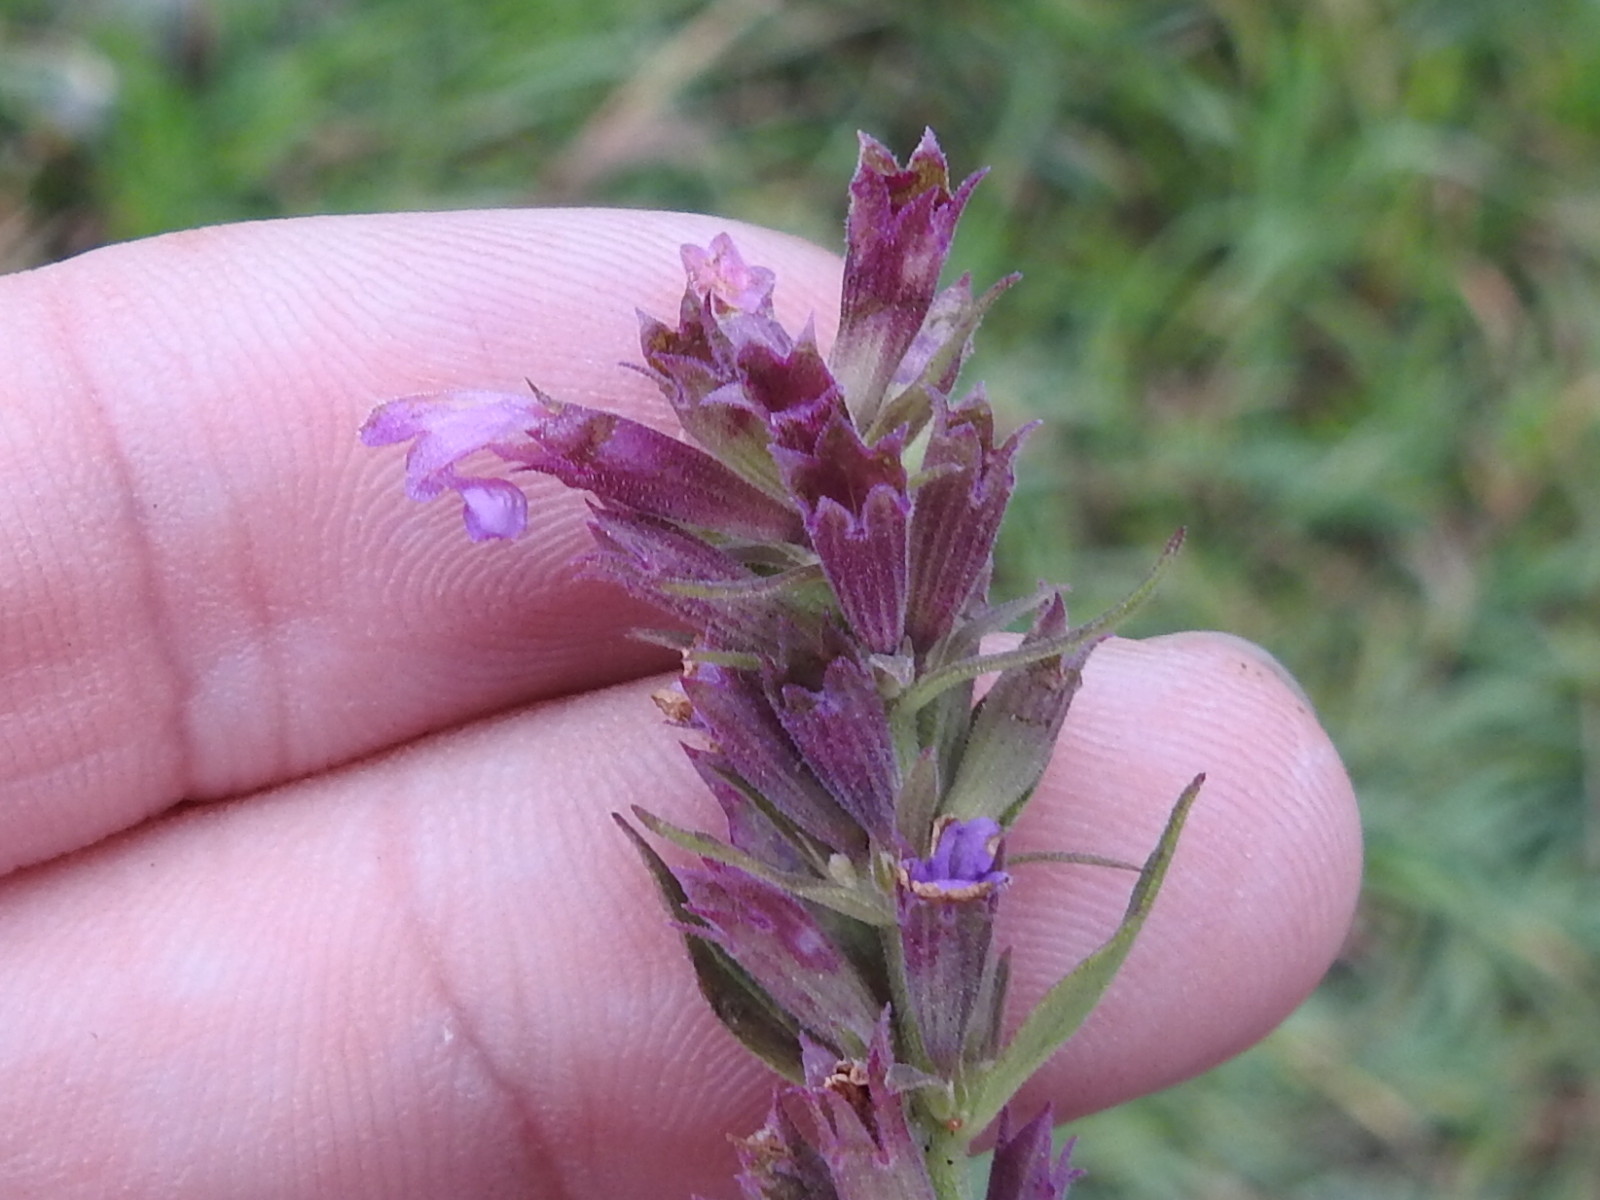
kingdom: Plantae
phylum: Tracheophyta
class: Magnoliopsida
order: Lamiales
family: Lamiaceae
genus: Agastache
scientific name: Agastache pallidiflora
